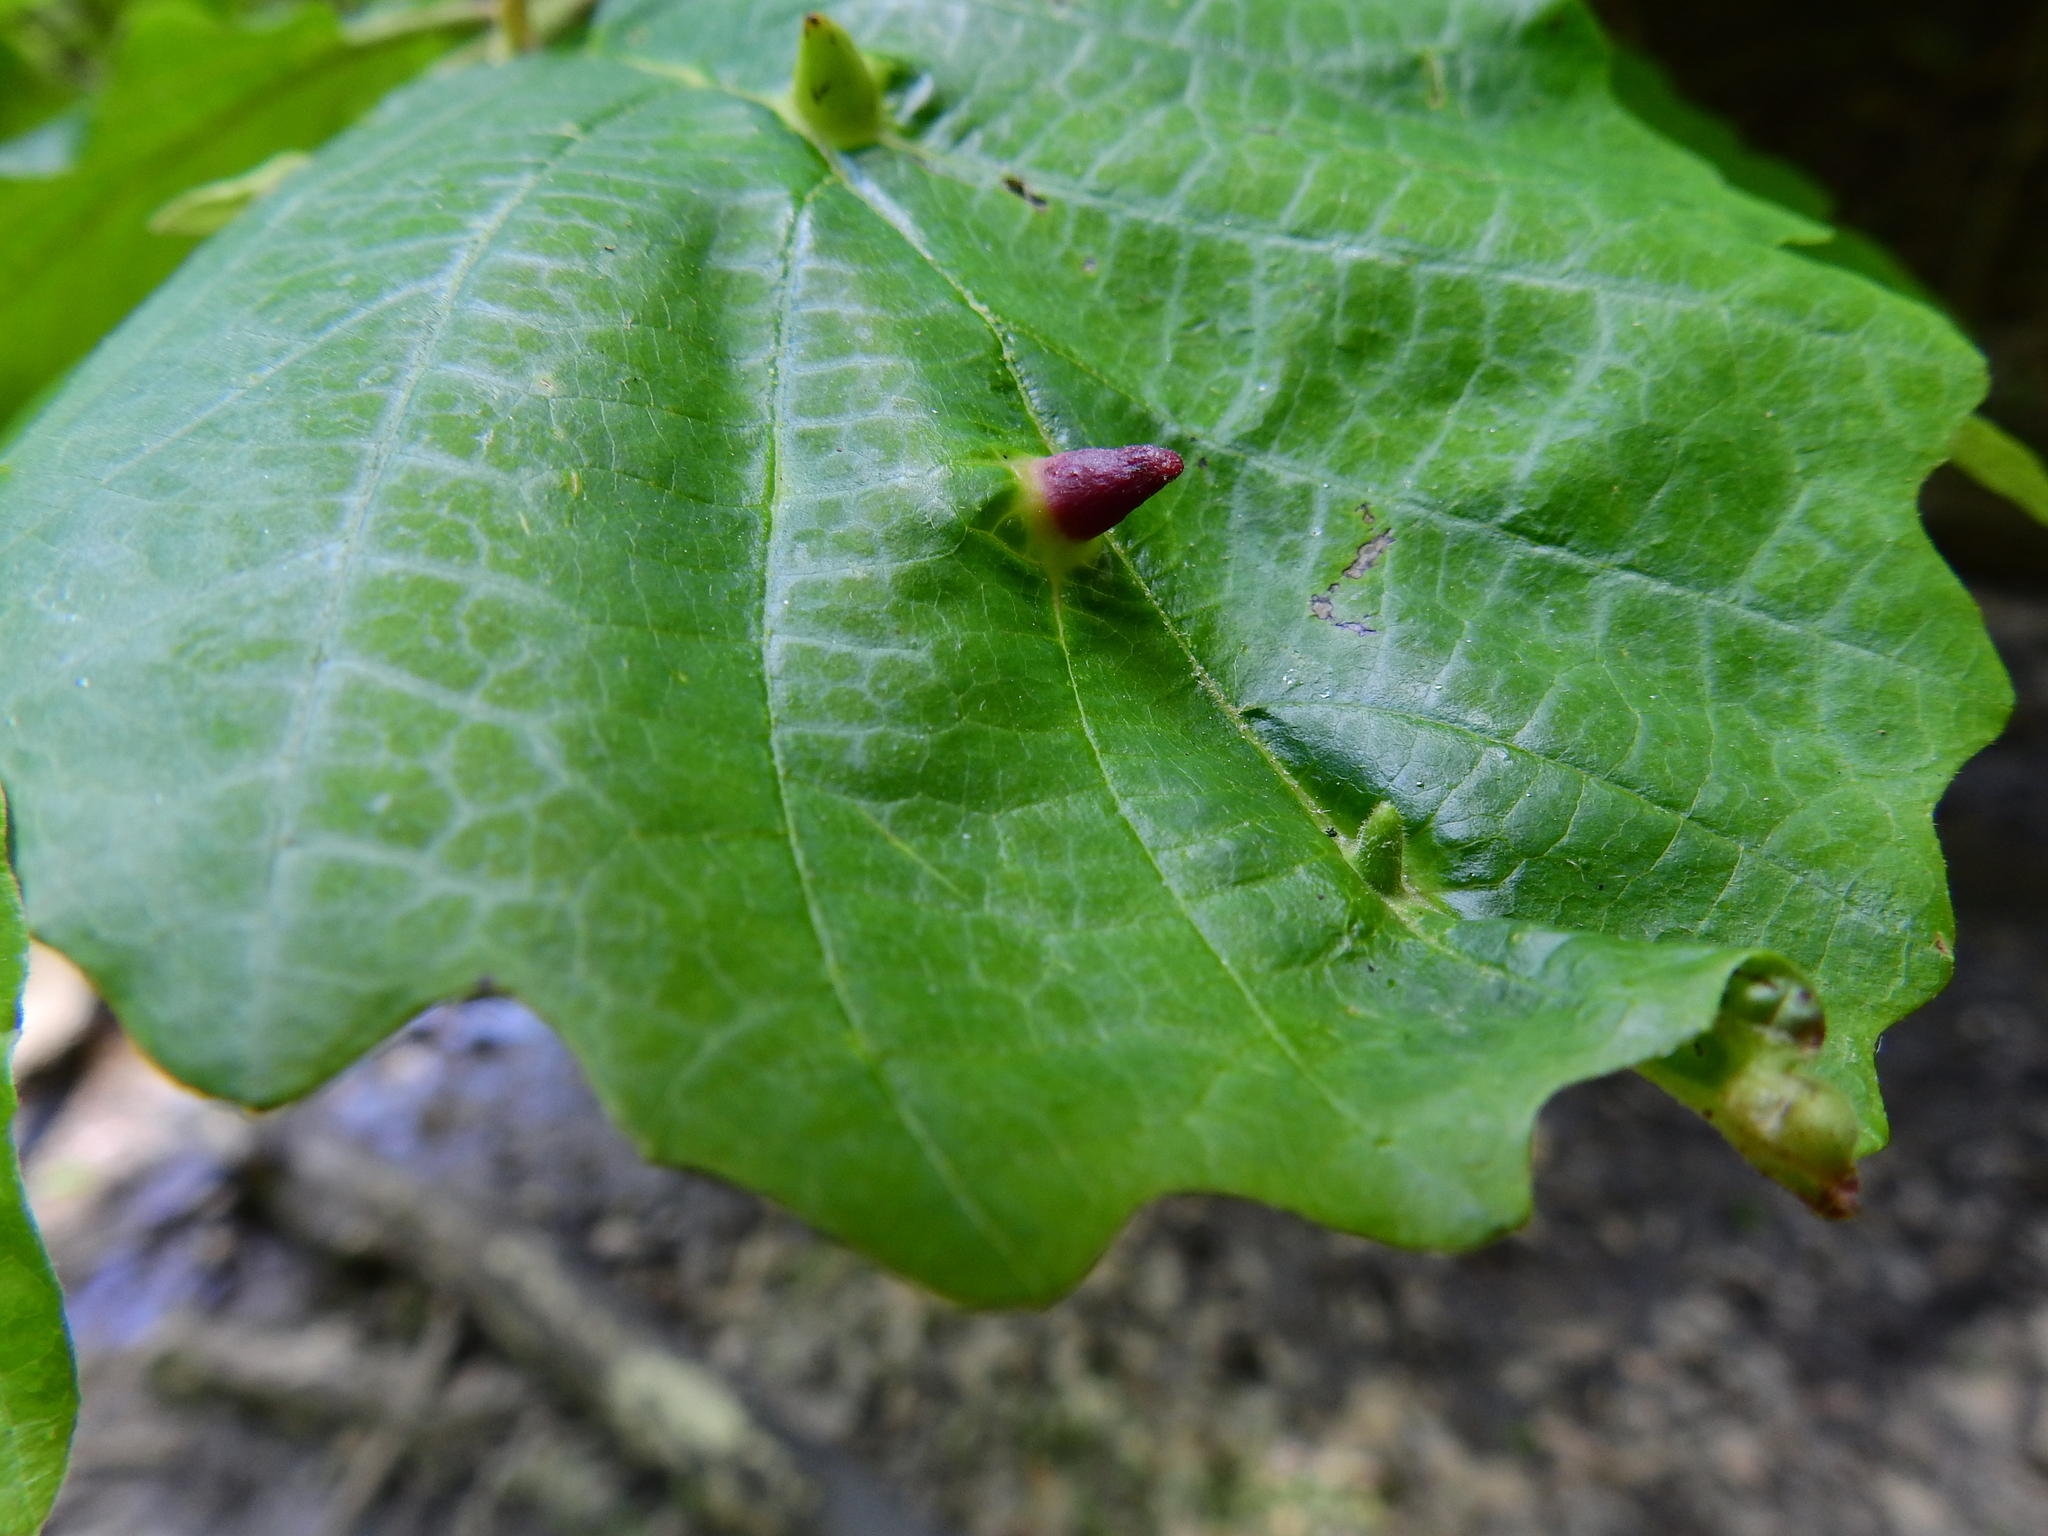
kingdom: Animalia
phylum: Arthropoda
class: Insecta
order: Hemiptera
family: Aphididae
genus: Hormaphis
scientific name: Hormaphis hamamelidis
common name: Witch-hazel cone gall aphid
